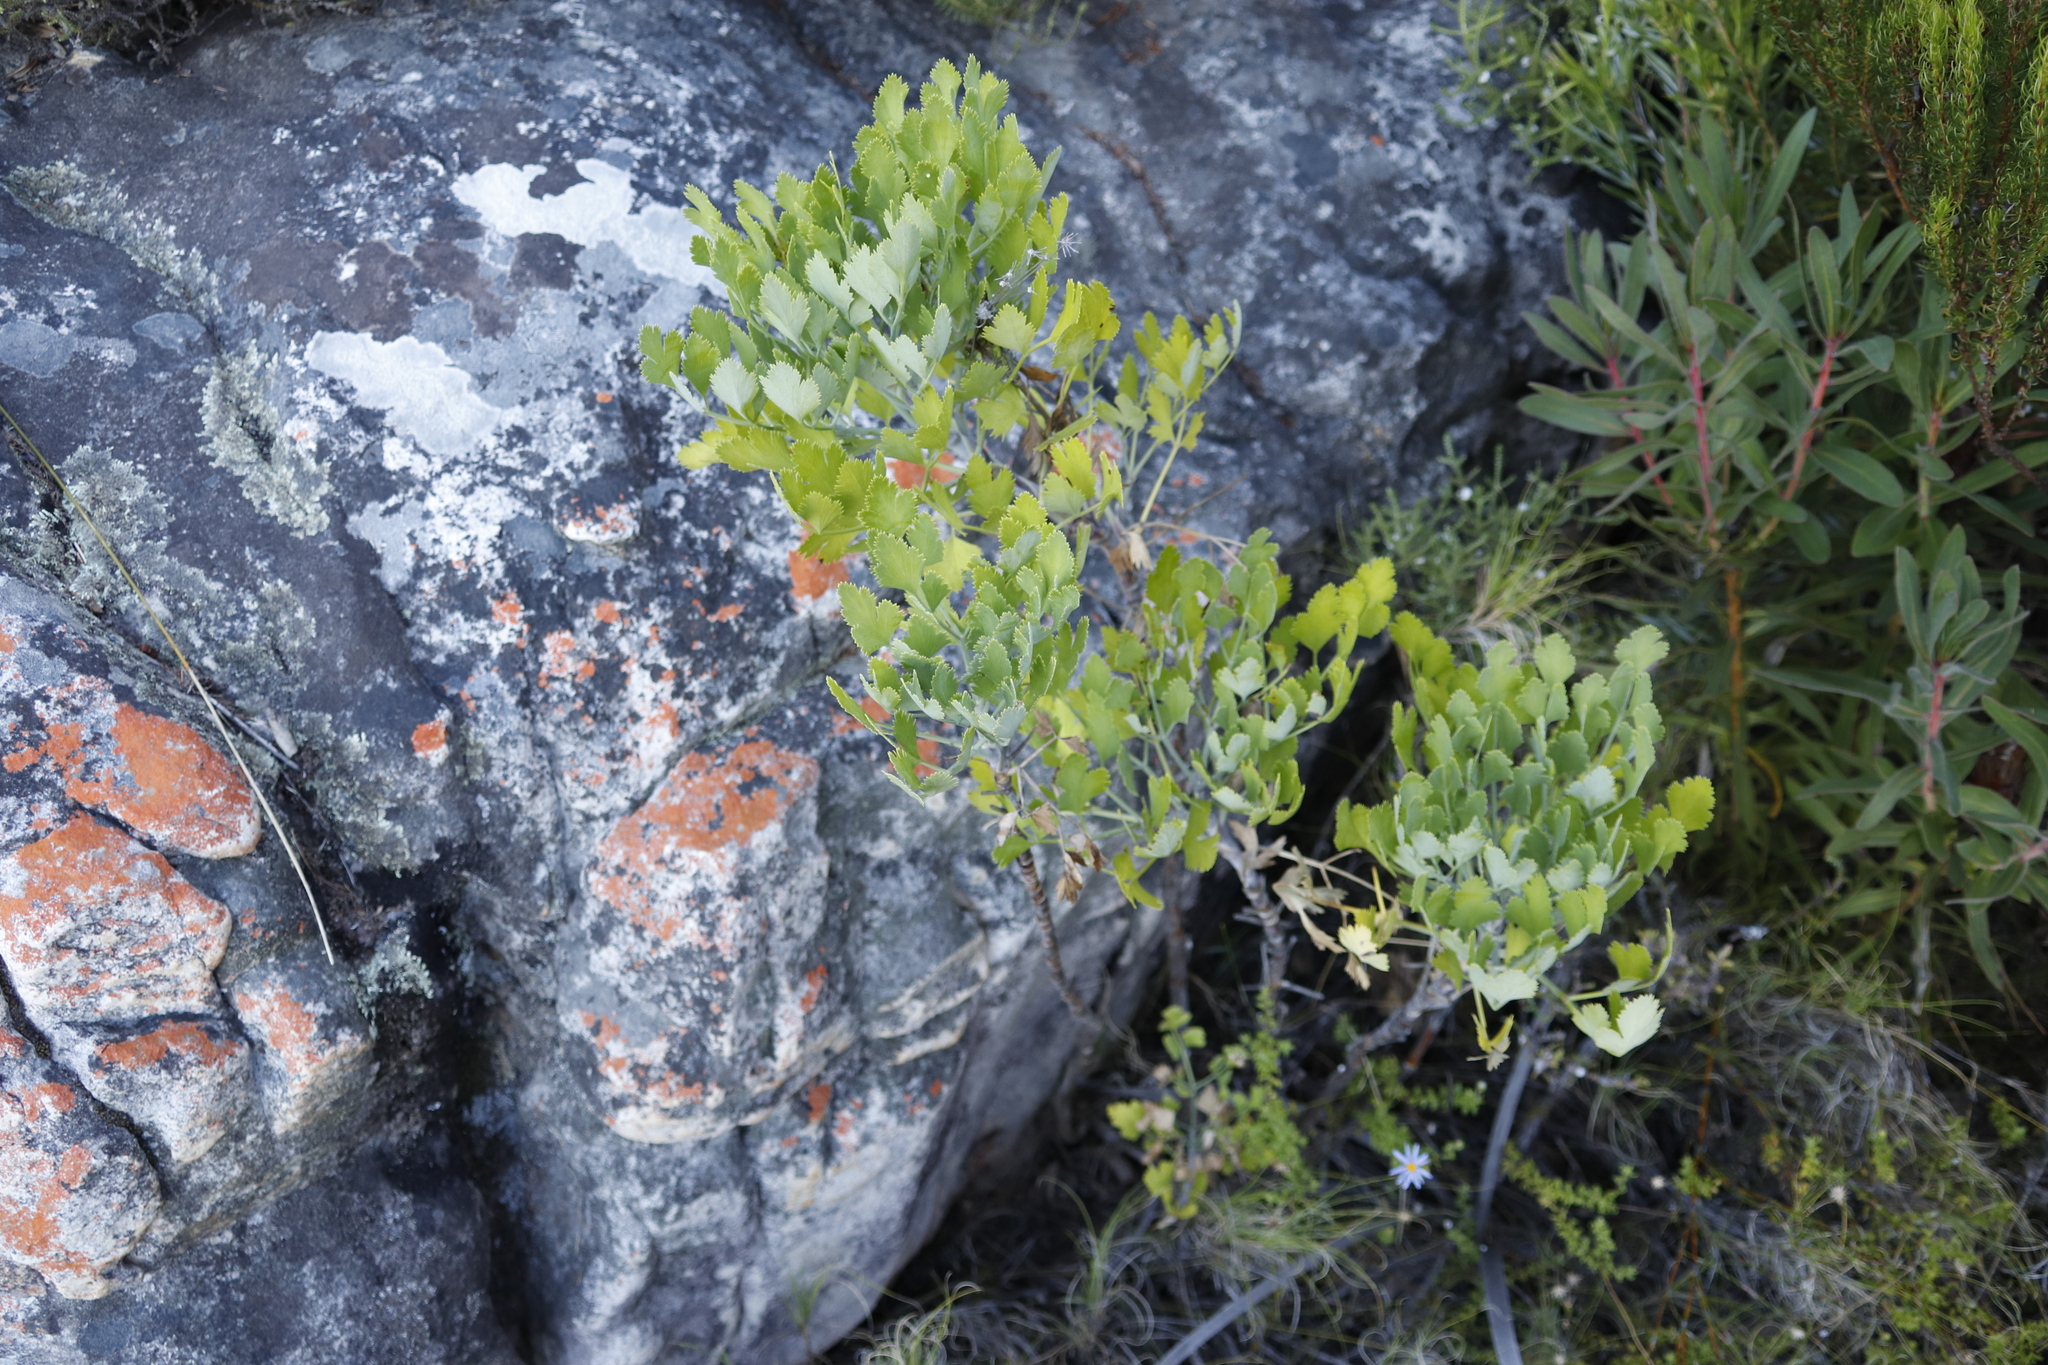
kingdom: Plantae
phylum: Tracheophyta
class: Magnoliopsida
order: Apiales
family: Apiaceae
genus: Notobubon
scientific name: Notobubon galbanum
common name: Blisterbush
